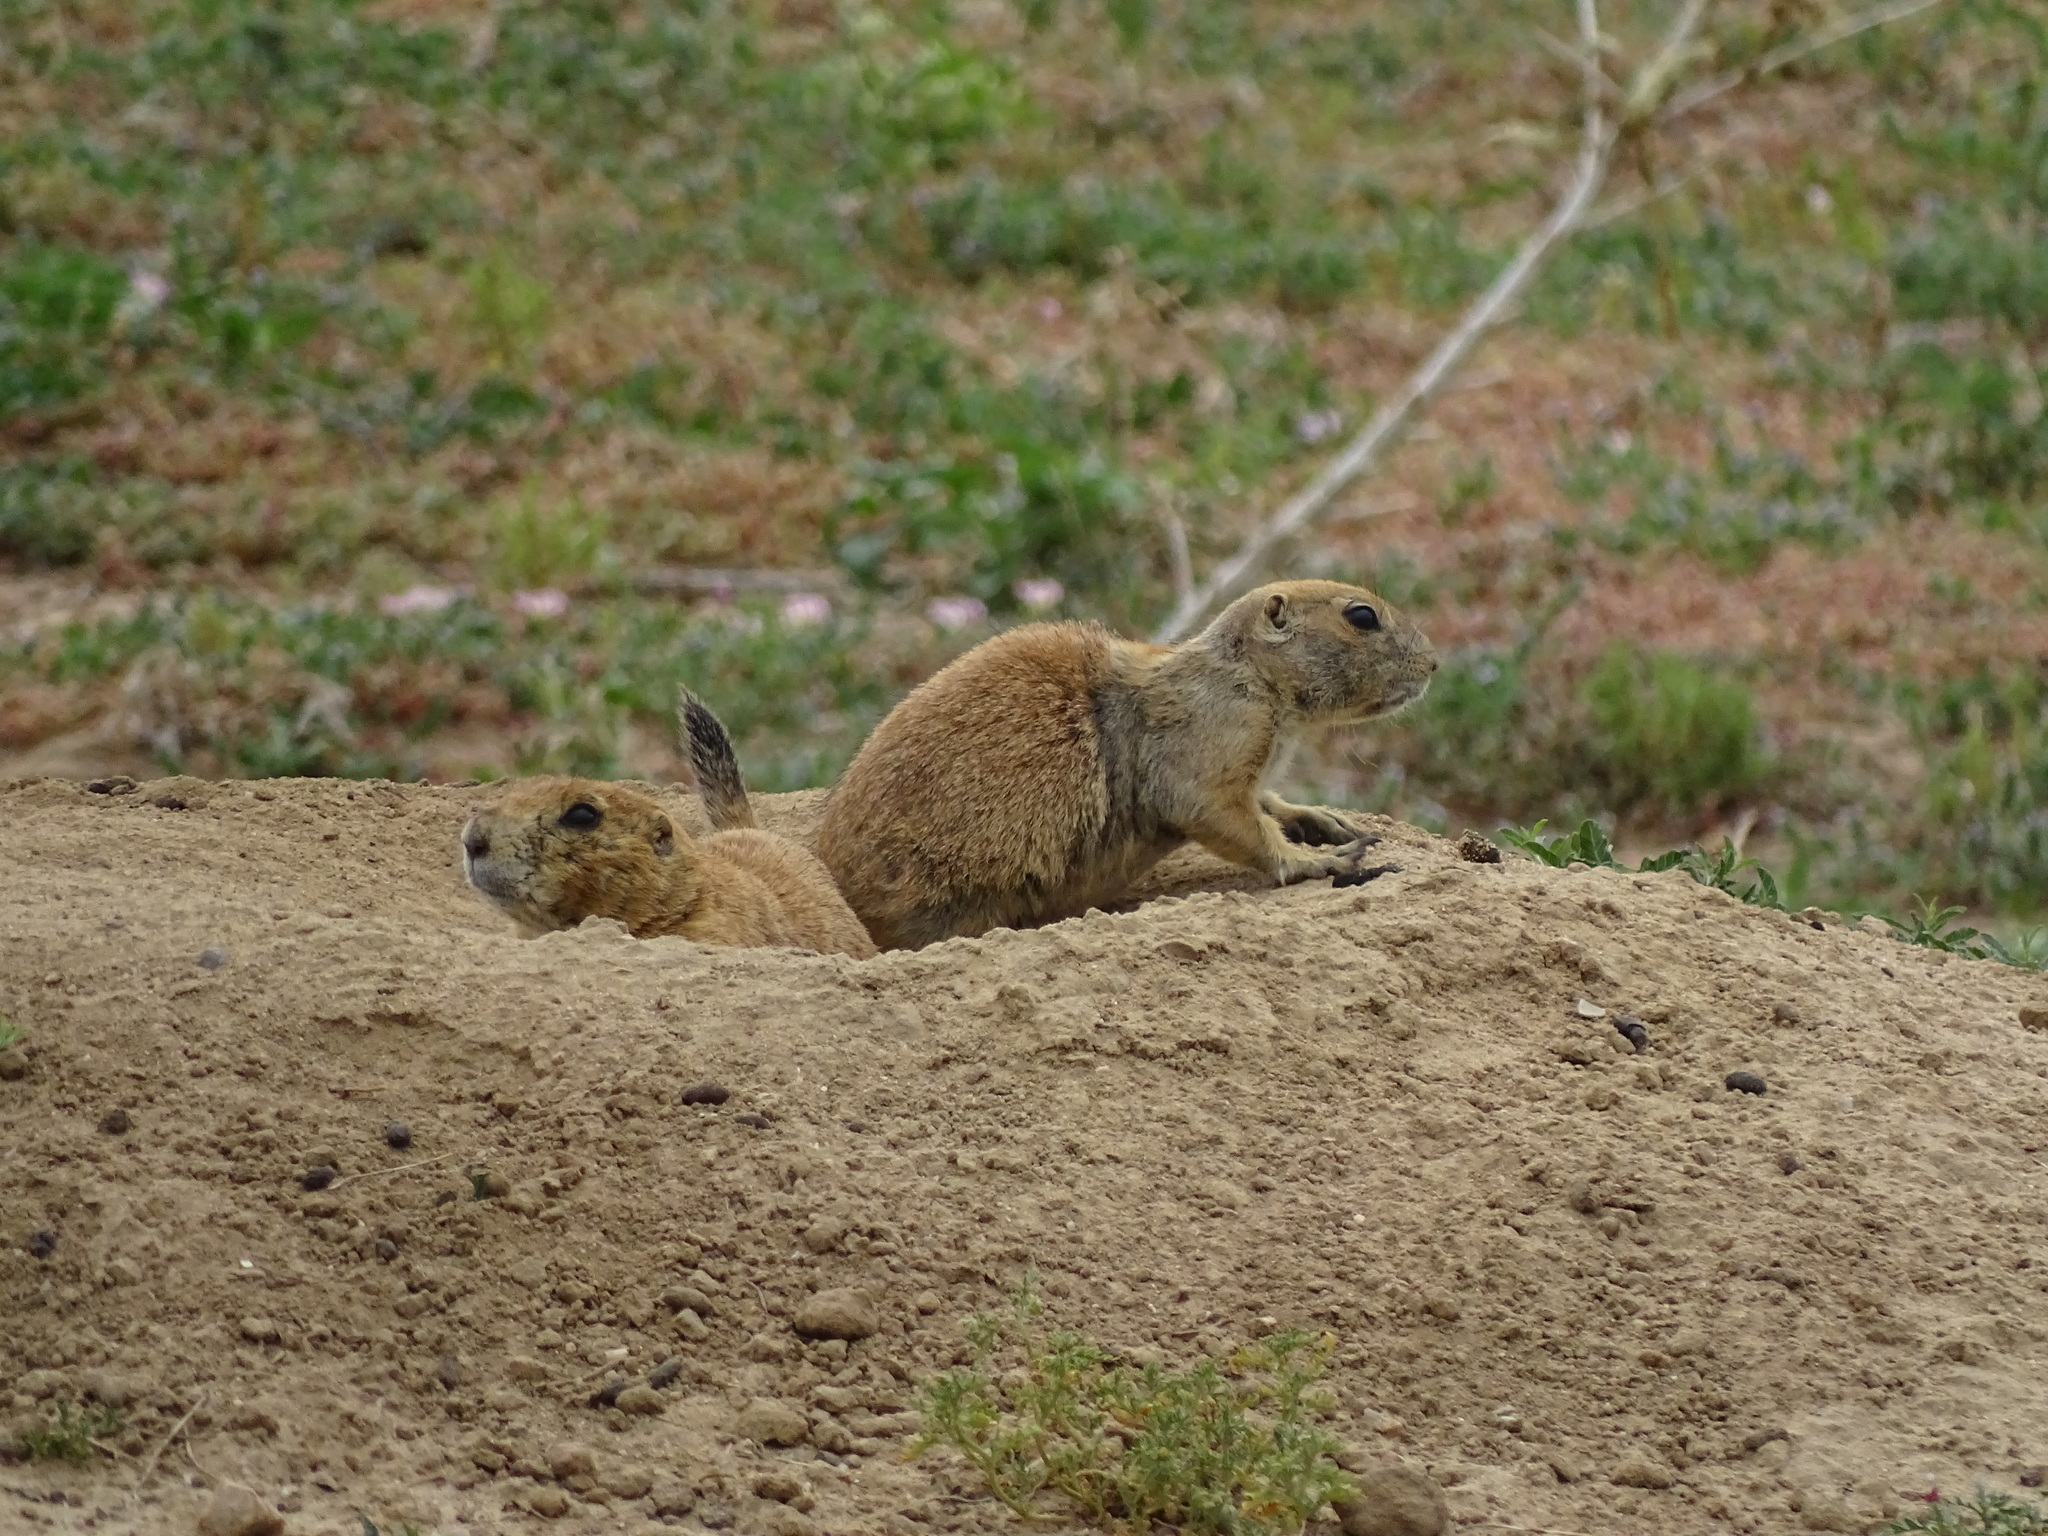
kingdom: Animalia
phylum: Chordata
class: Mammalia
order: Rodentia
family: Sciuridae
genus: Cynomys
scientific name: Cynomys ludovicianus
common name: Black-tailed prairie dog
